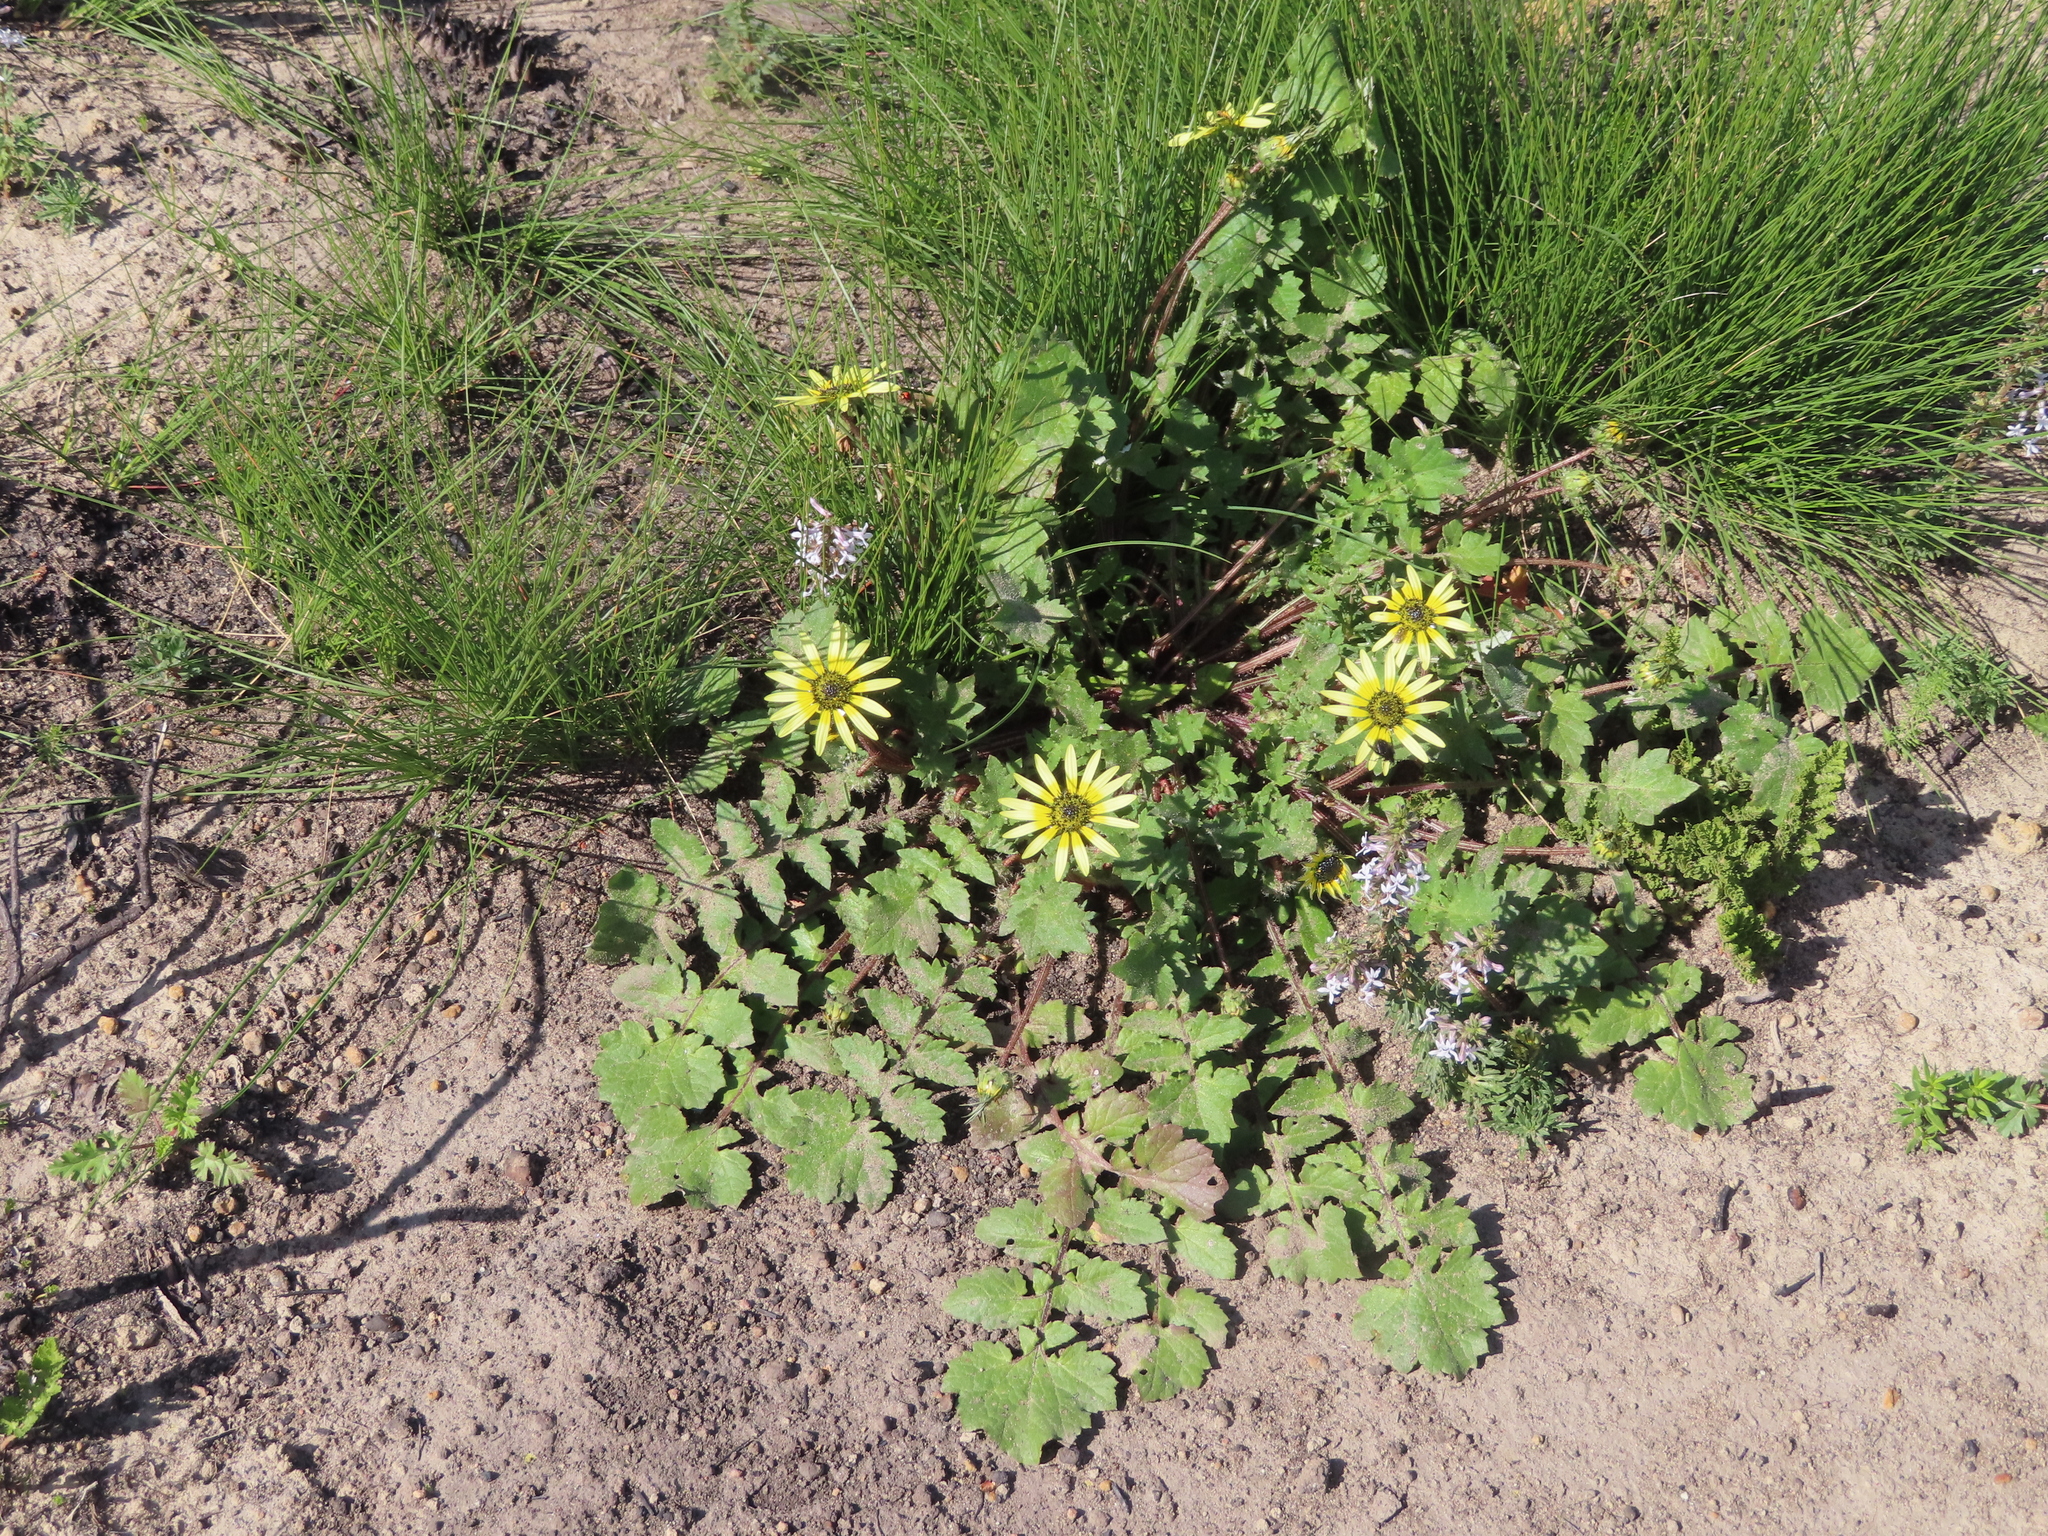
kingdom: Plantae
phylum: Tracheophyta
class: Magnoliopsida
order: Asterales
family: Asteraceae
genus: Arctotheca
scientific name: Arctotheca calendula
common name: Capeweed
